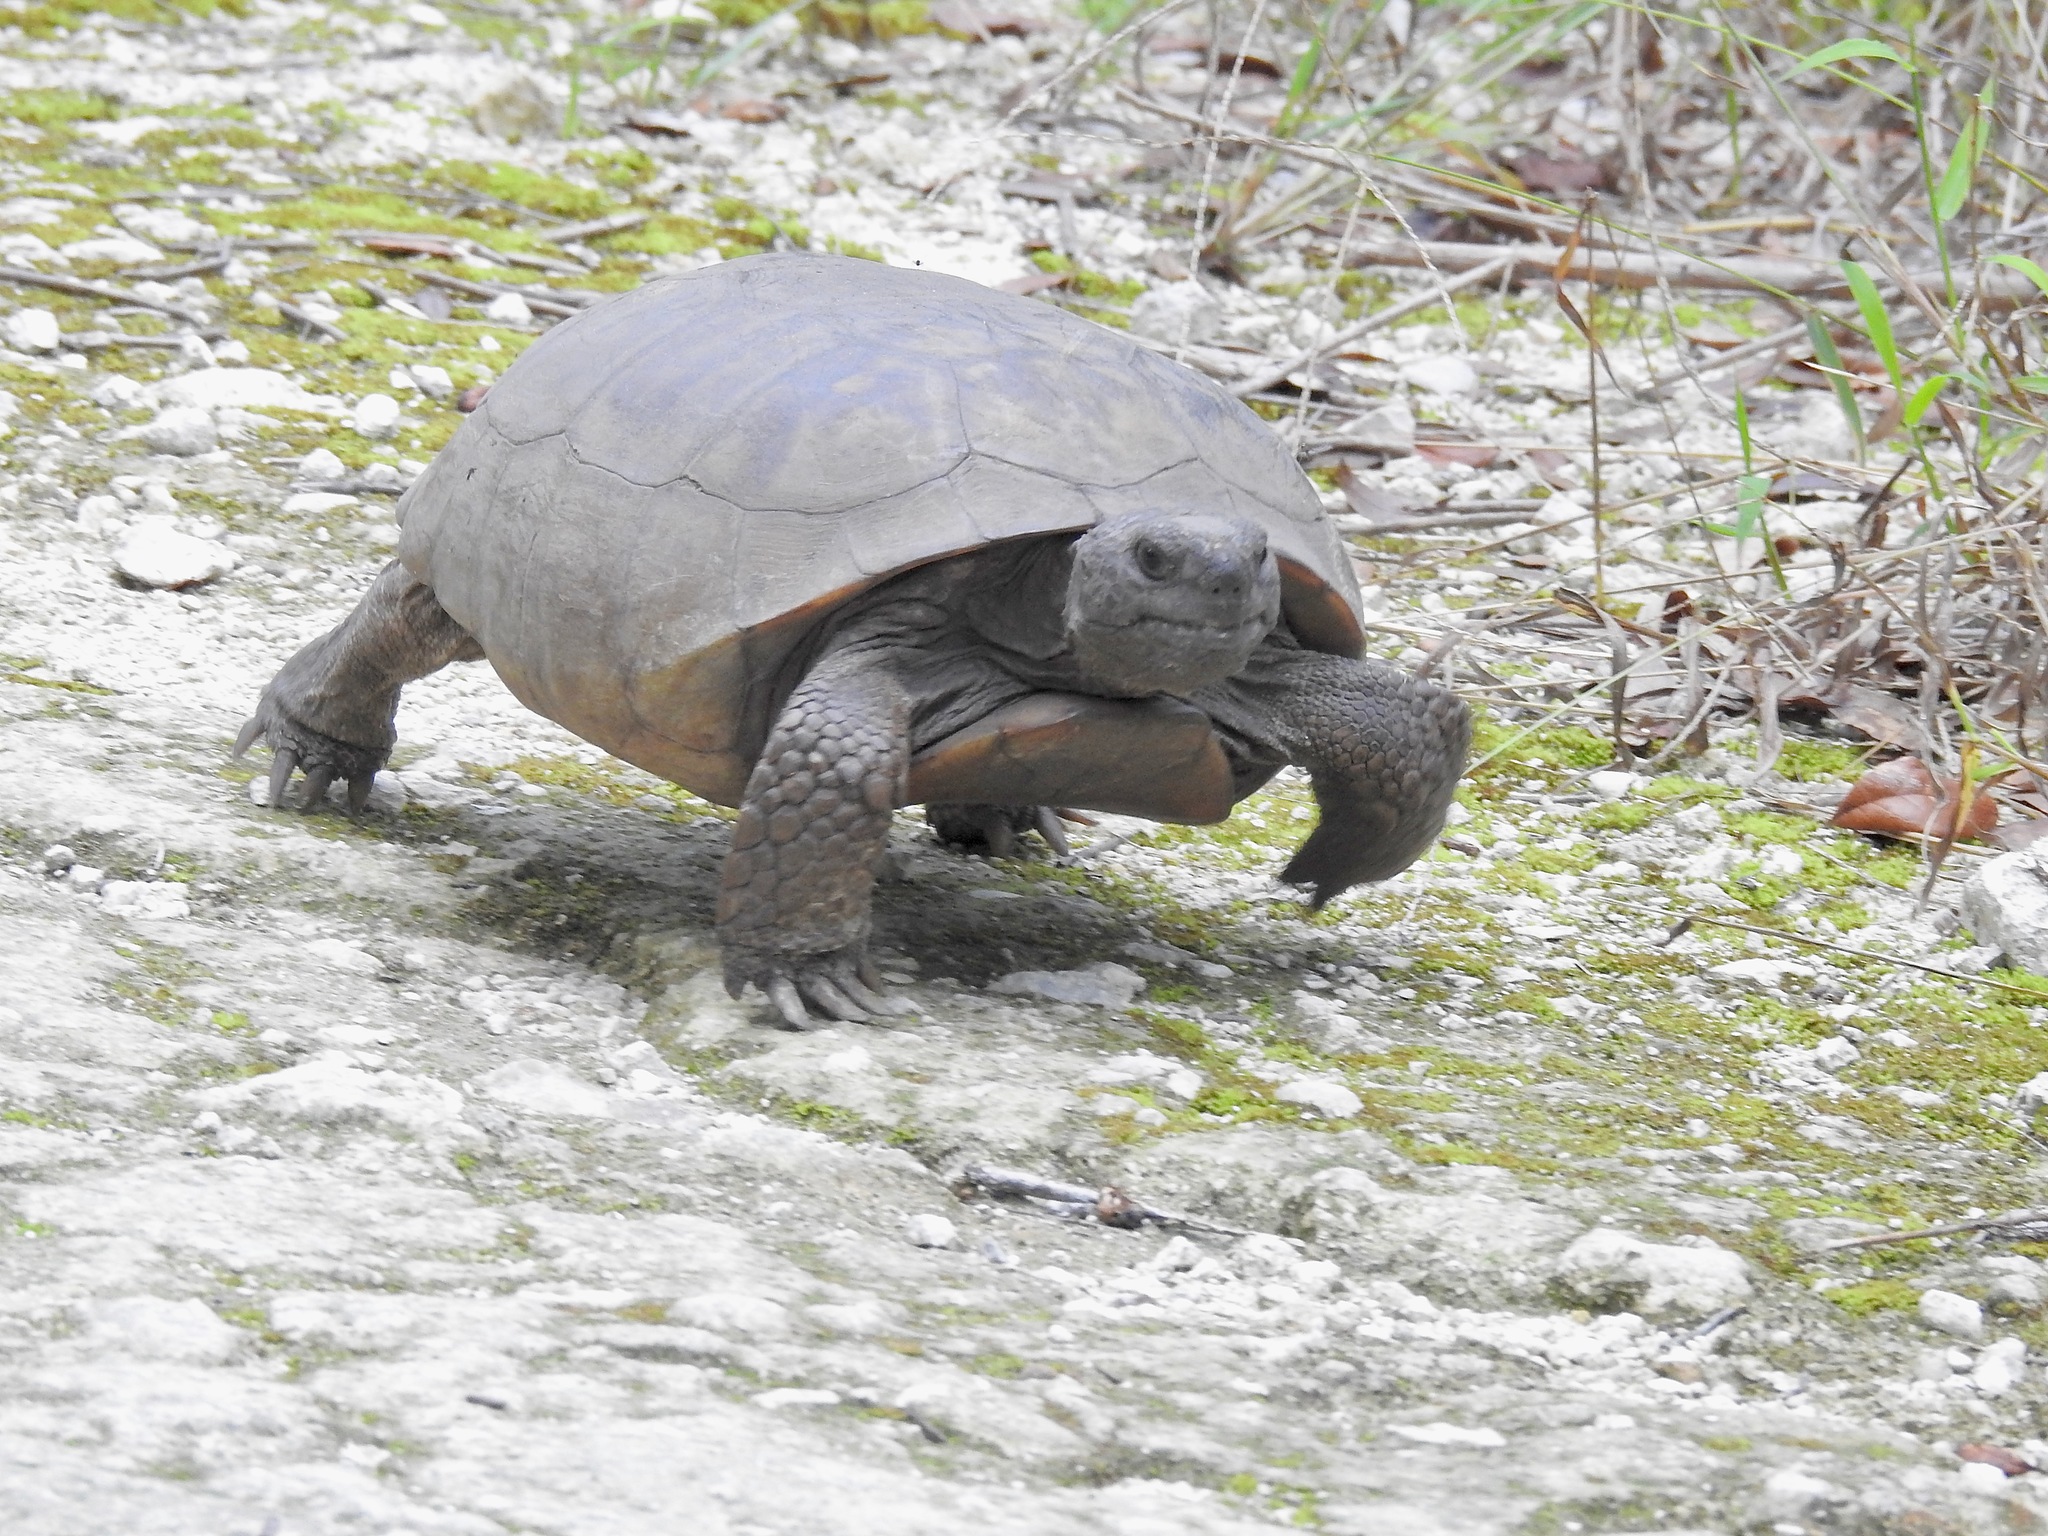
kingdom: Animalia
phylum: Chordata
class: Testudines
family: Testudinidae
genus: Gopherus
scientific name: Gopherus polyphemus
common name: Florida gopher tortoise
